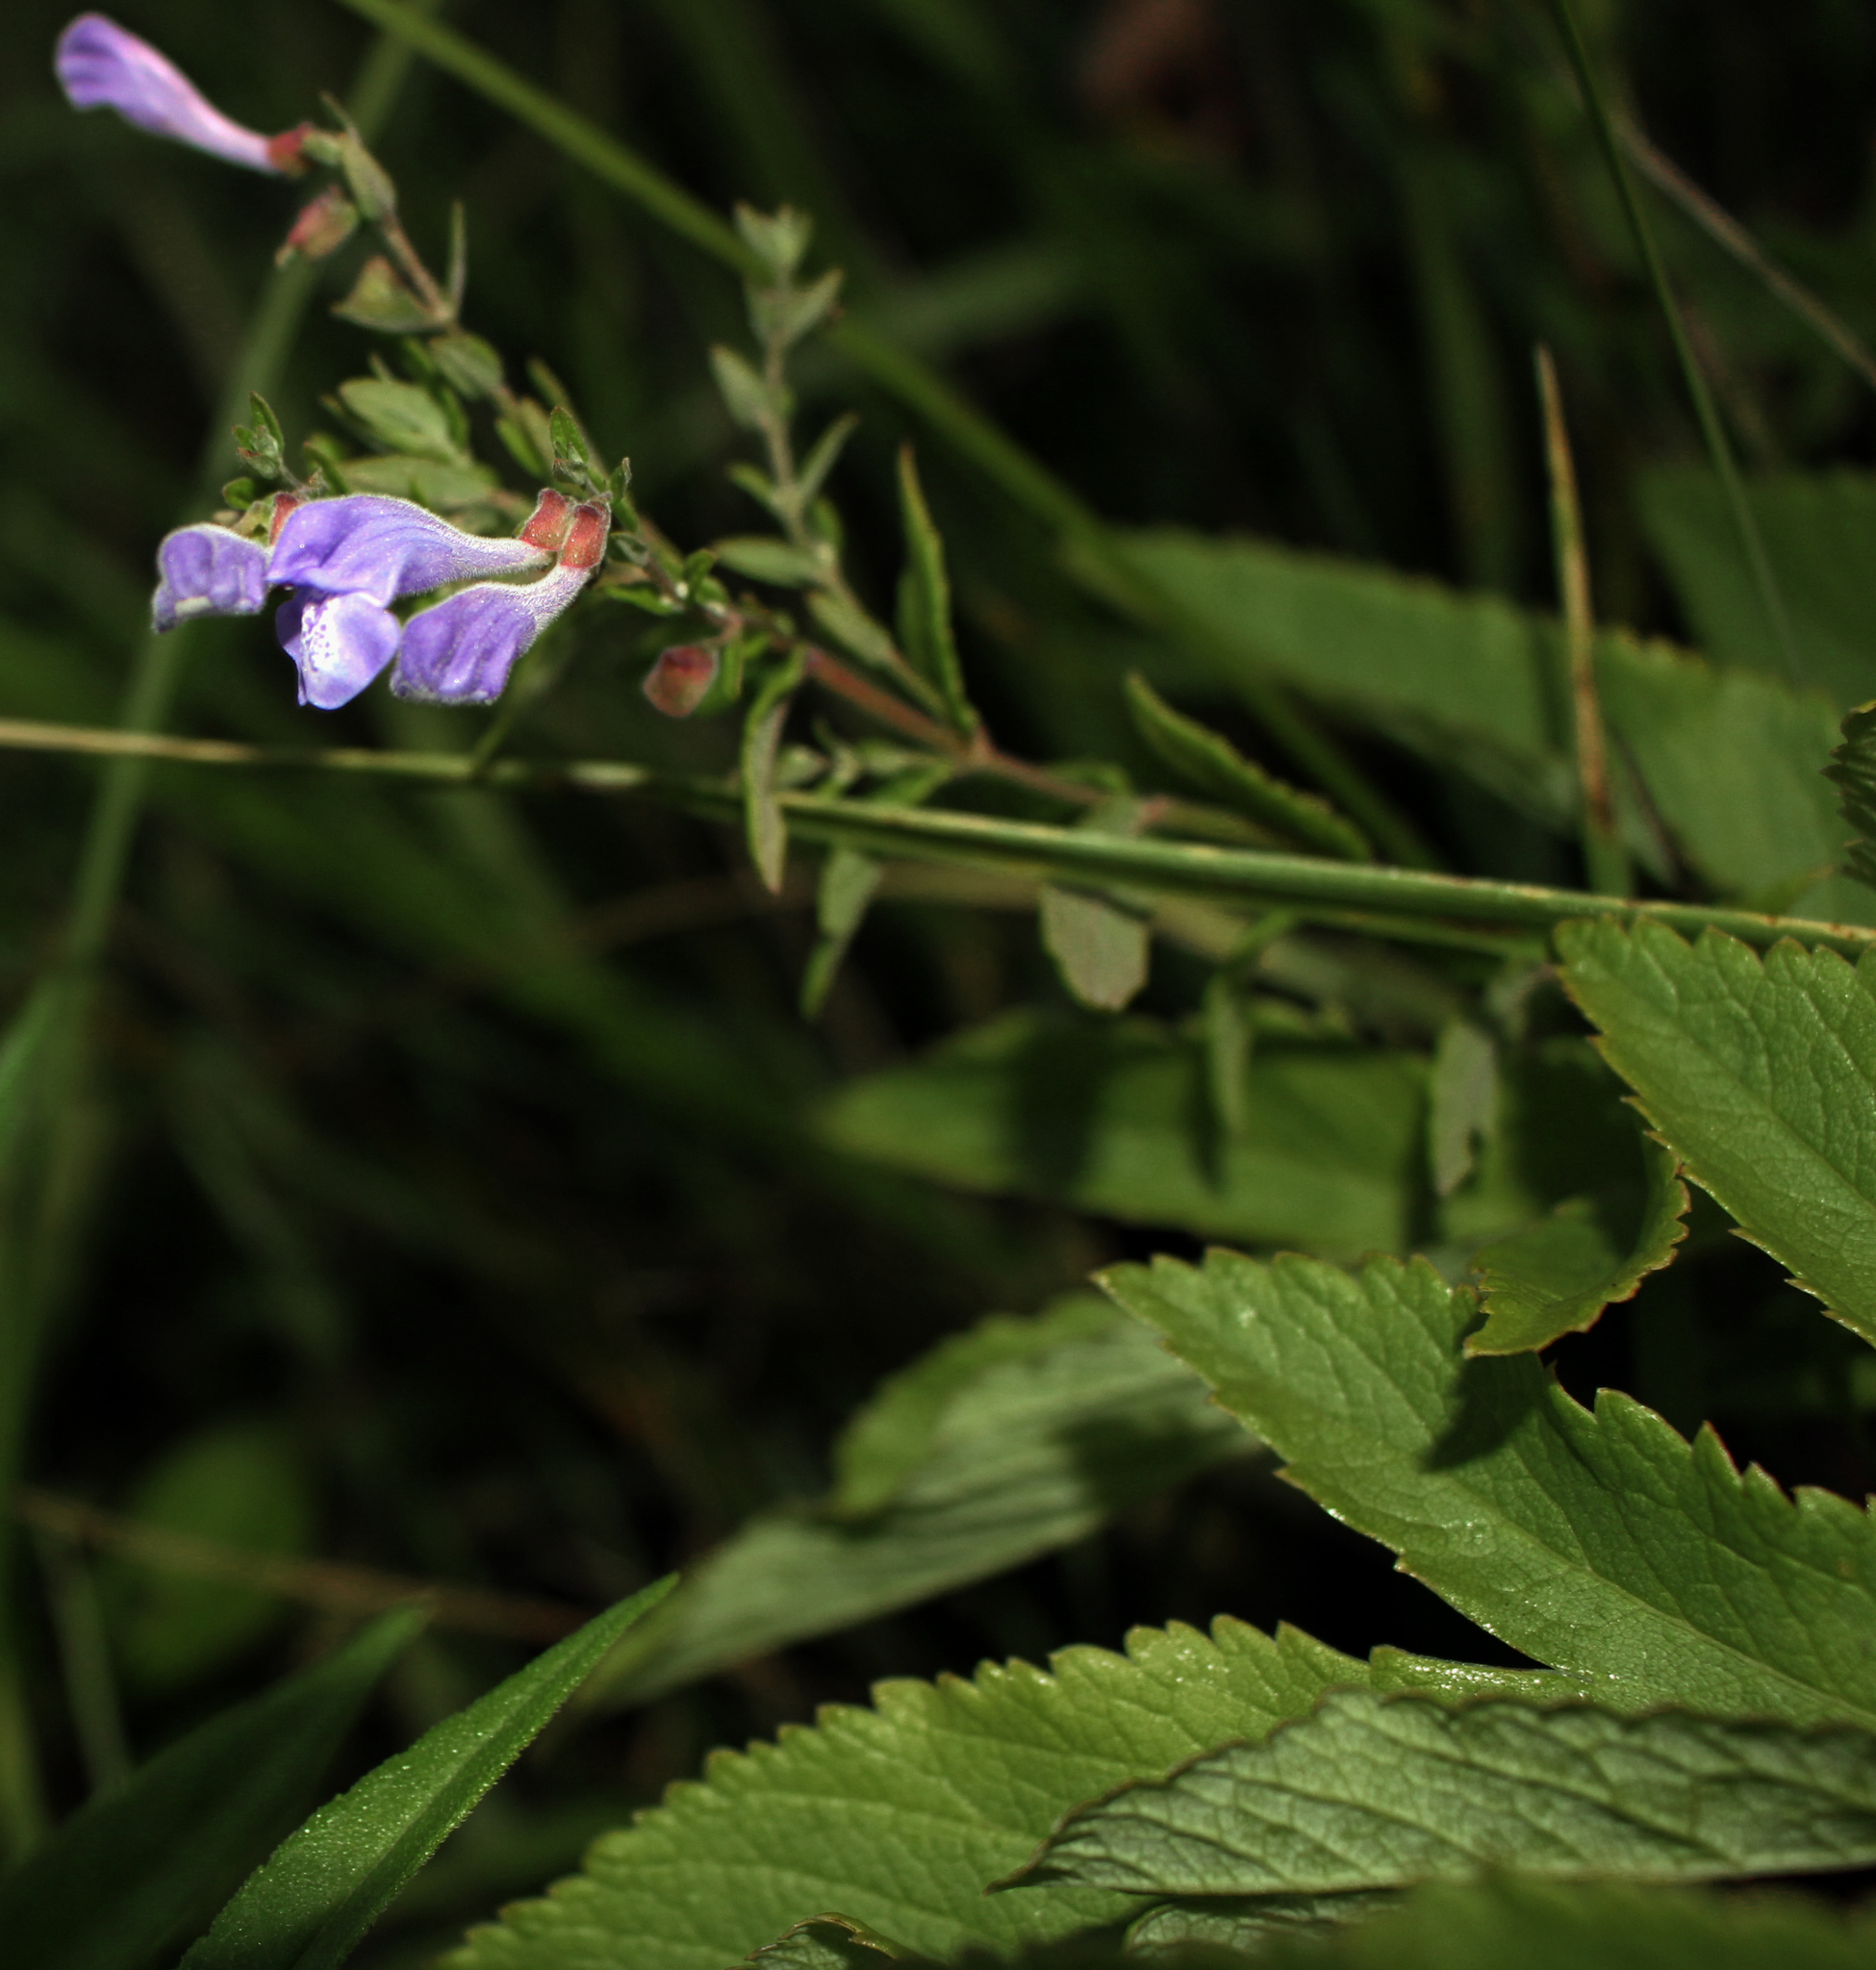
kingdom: Plantae
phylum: Tracheophyta
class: Magnoliopsida
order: Lamiales
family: Lamiaceae
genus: Scutellaria
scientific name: Scutellaria galericulata
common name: Skullcap
